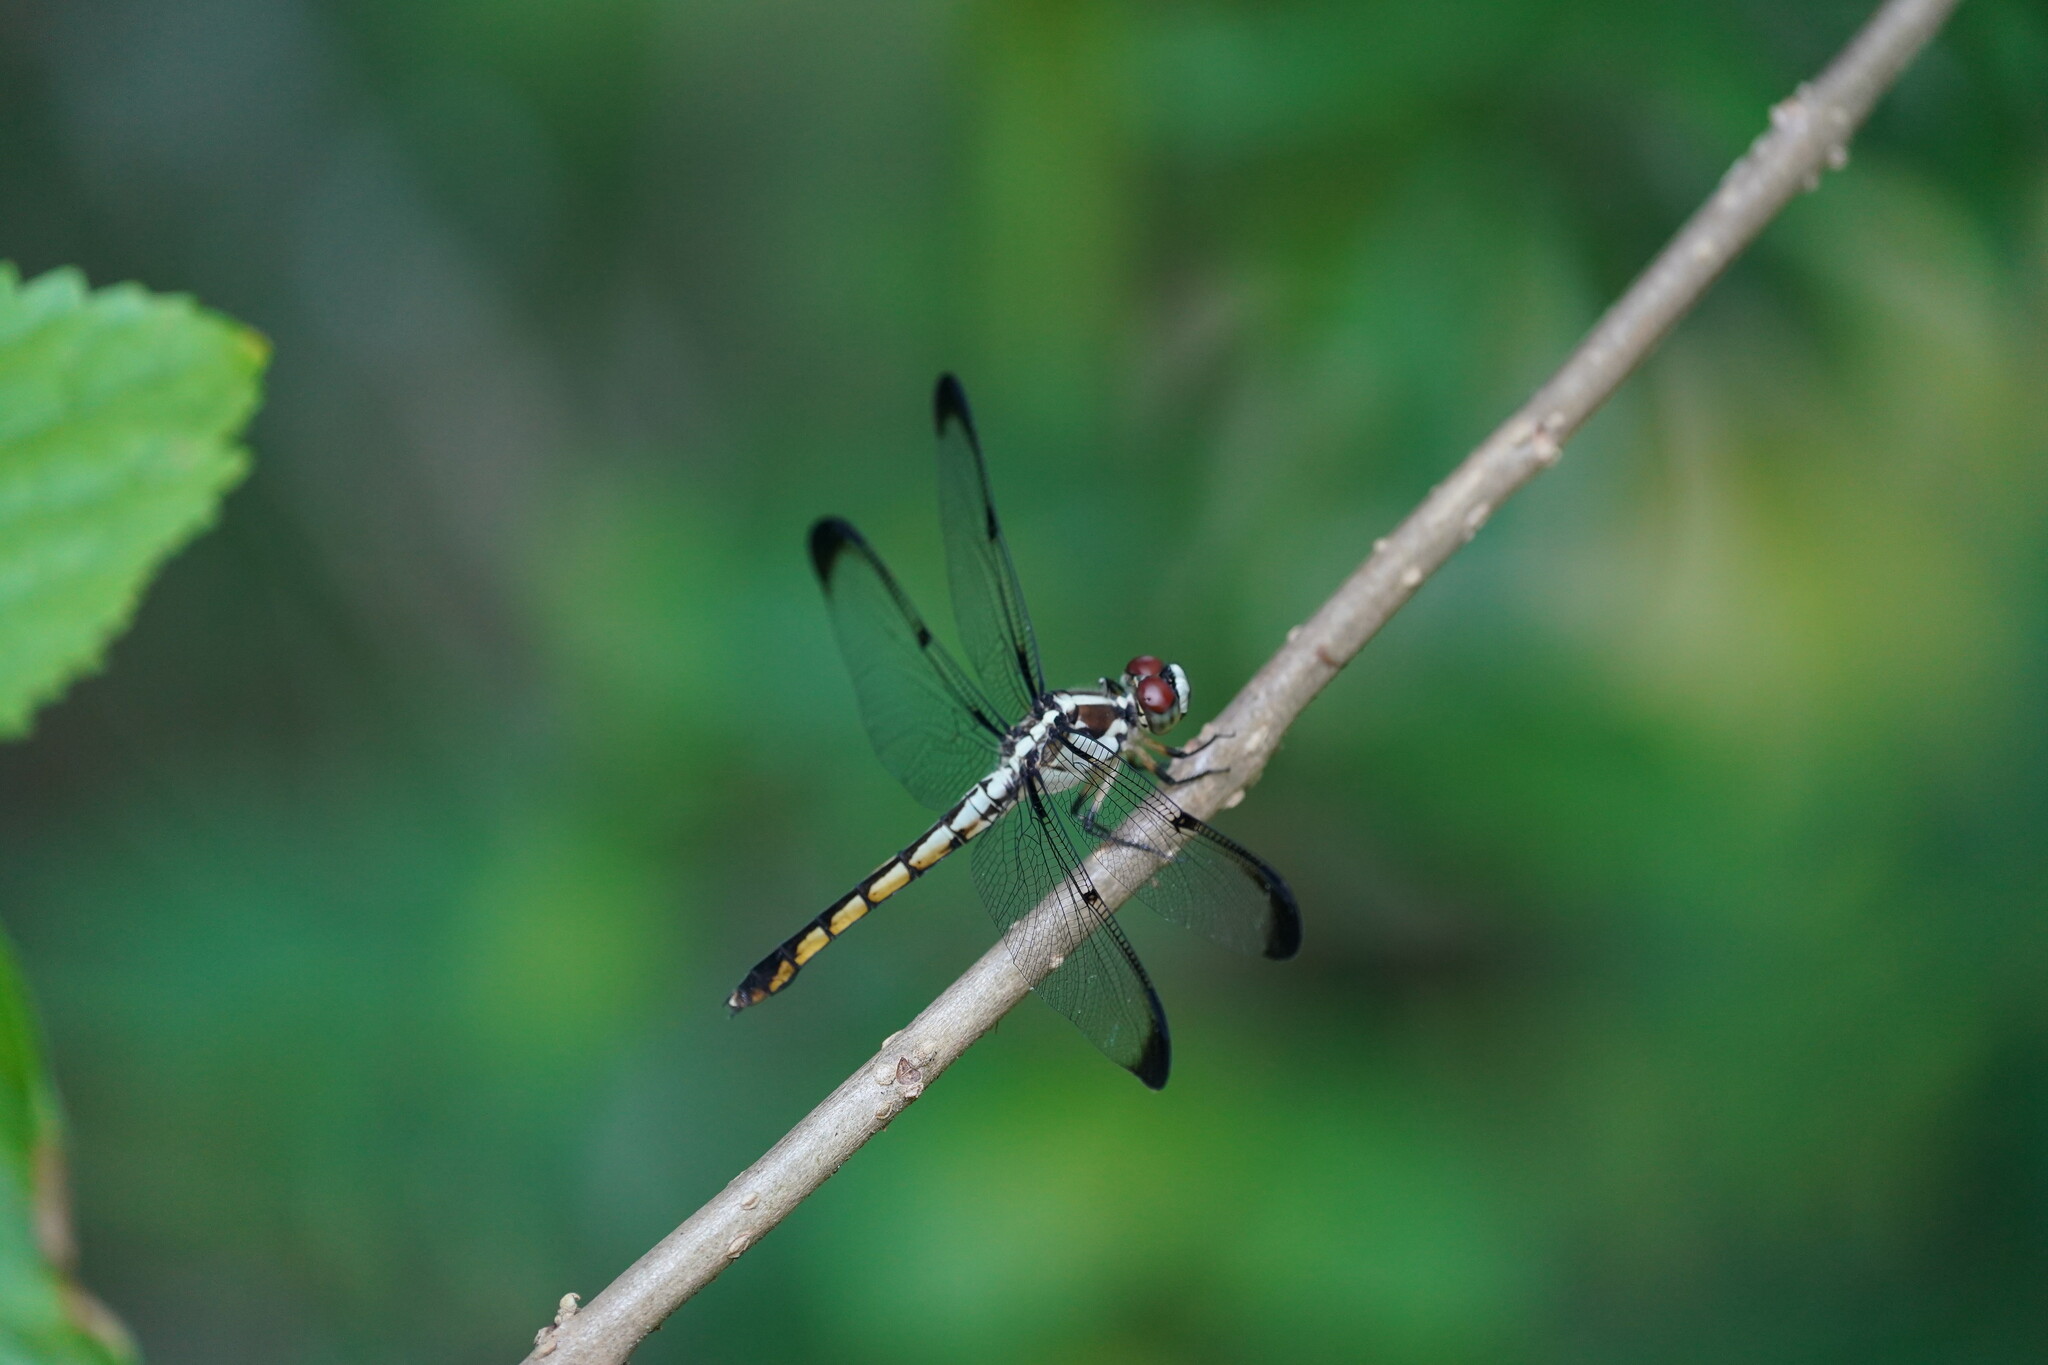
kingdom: Animalia
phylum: Arthropoda
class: Insecta
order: Odonata
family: Libellulidae
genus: Libellula
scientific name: Libellula vibrans
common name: Great blue skimmer
